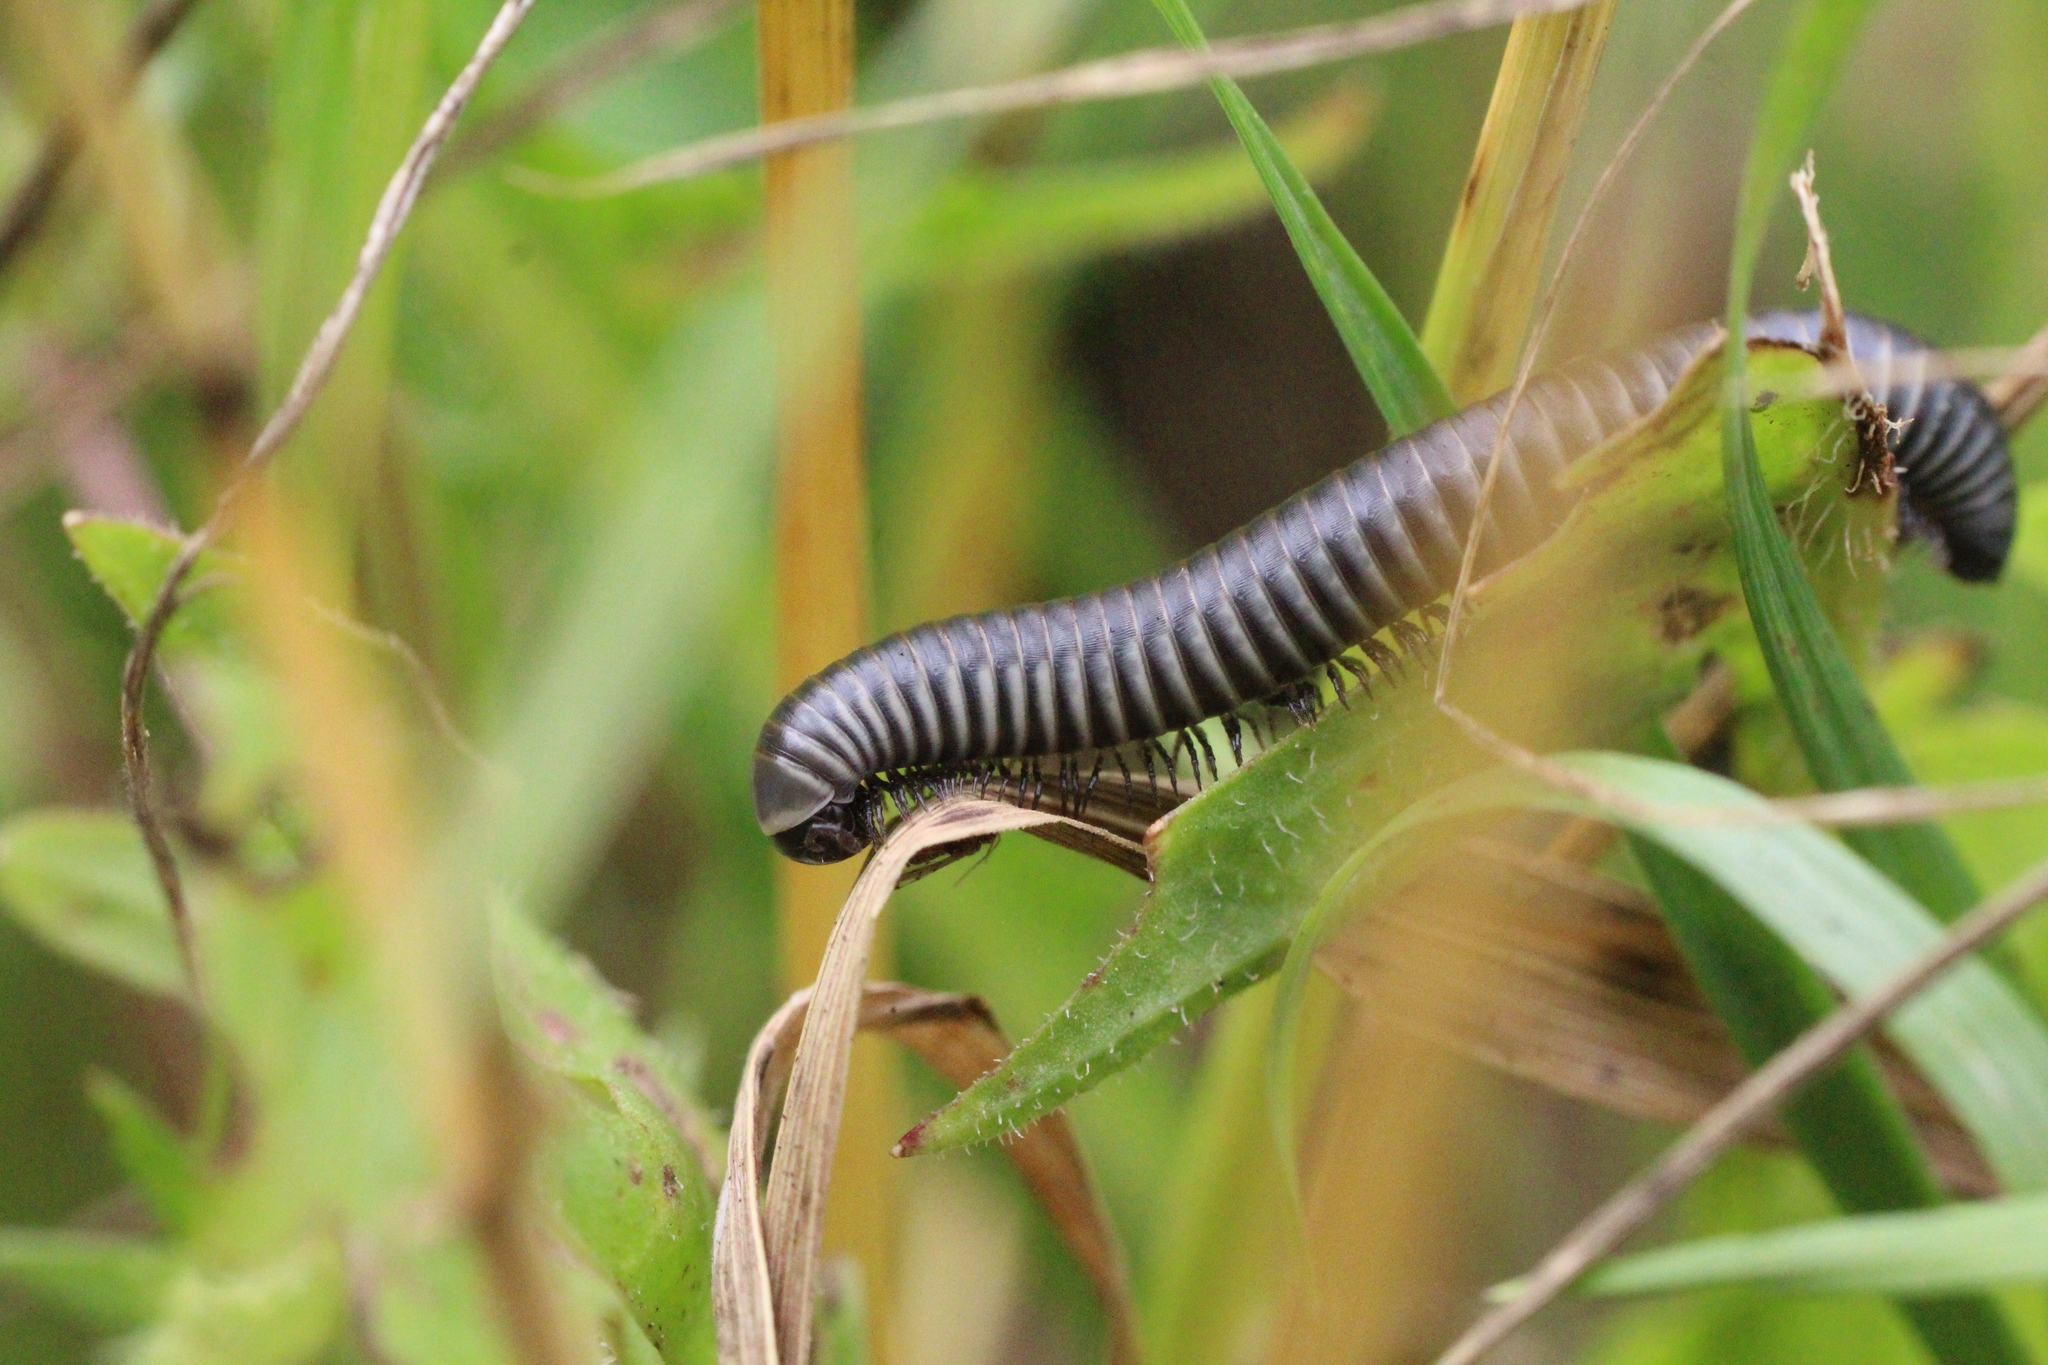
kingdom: Animalia
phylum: Arthropoda
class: Diplopoda
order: Julida
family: Julidae
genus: Ommatoiulus
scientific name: Ommatoiulus rutilans
